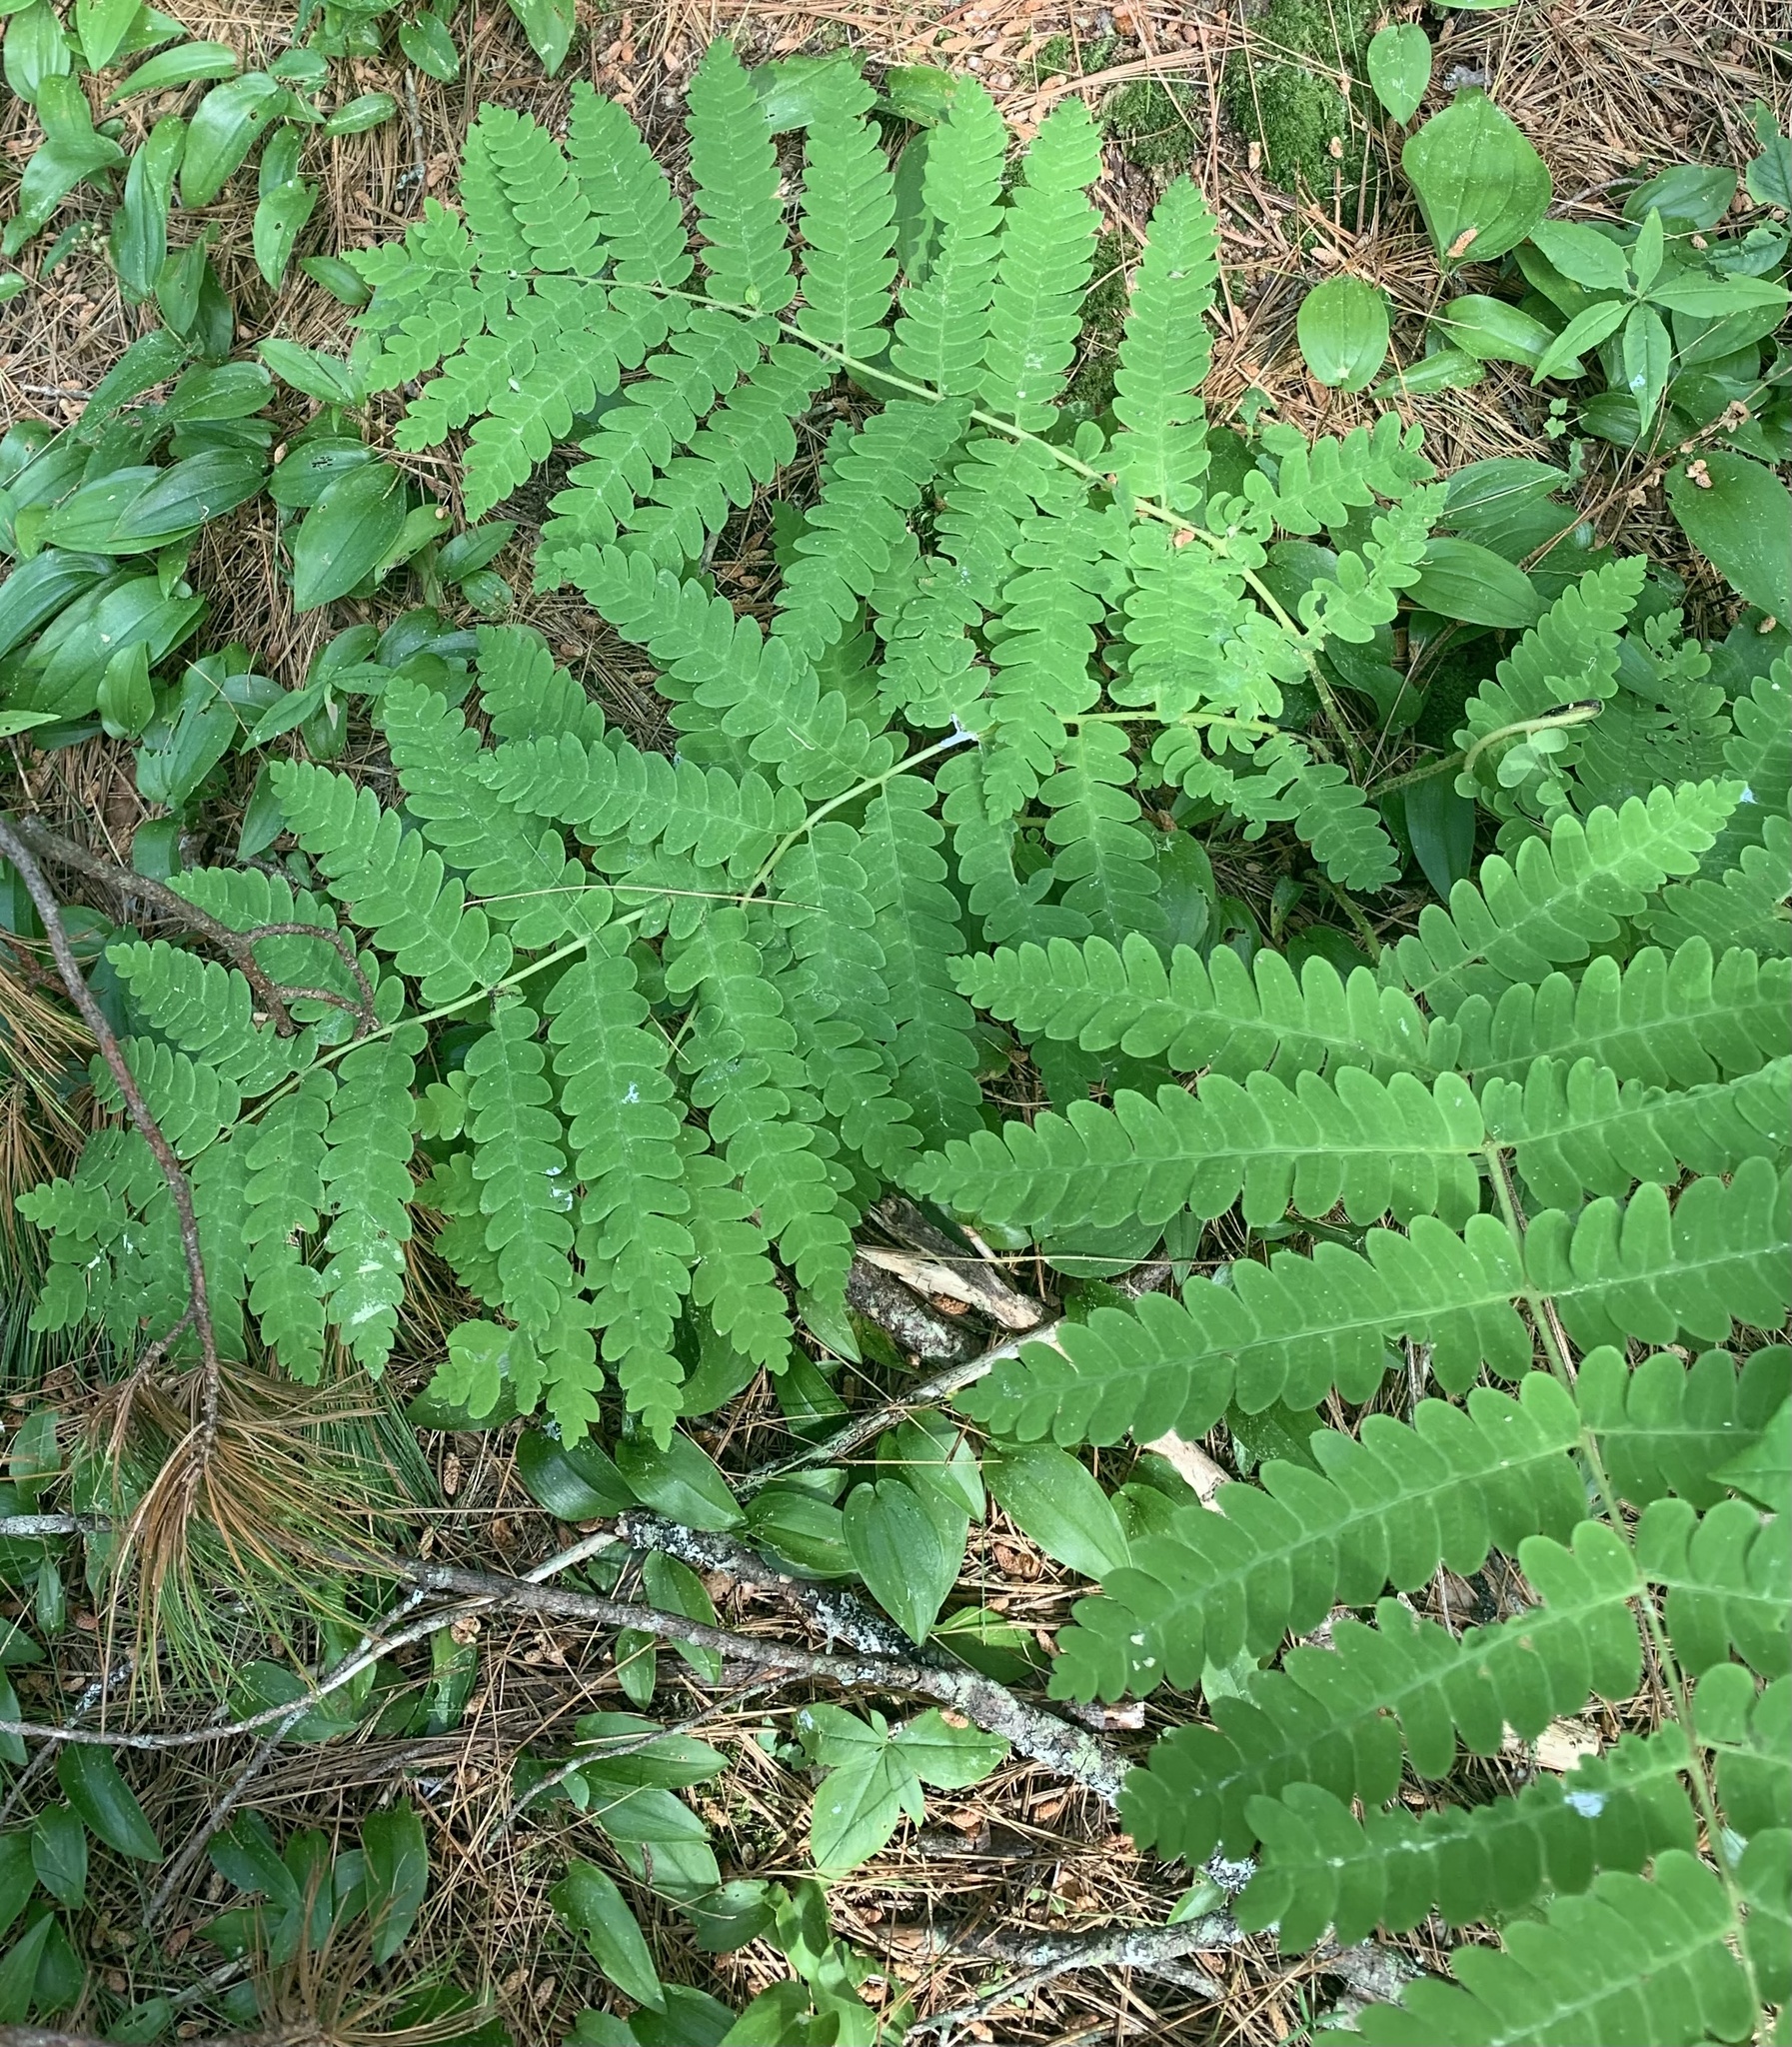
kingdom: Plantae
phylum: Tracheophyta
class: Polypodiopsida
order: Osmundales
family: Osmundaceae
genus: Claytosmunda
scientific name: Claytosmunda claytoniana
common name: Clayton's fern
